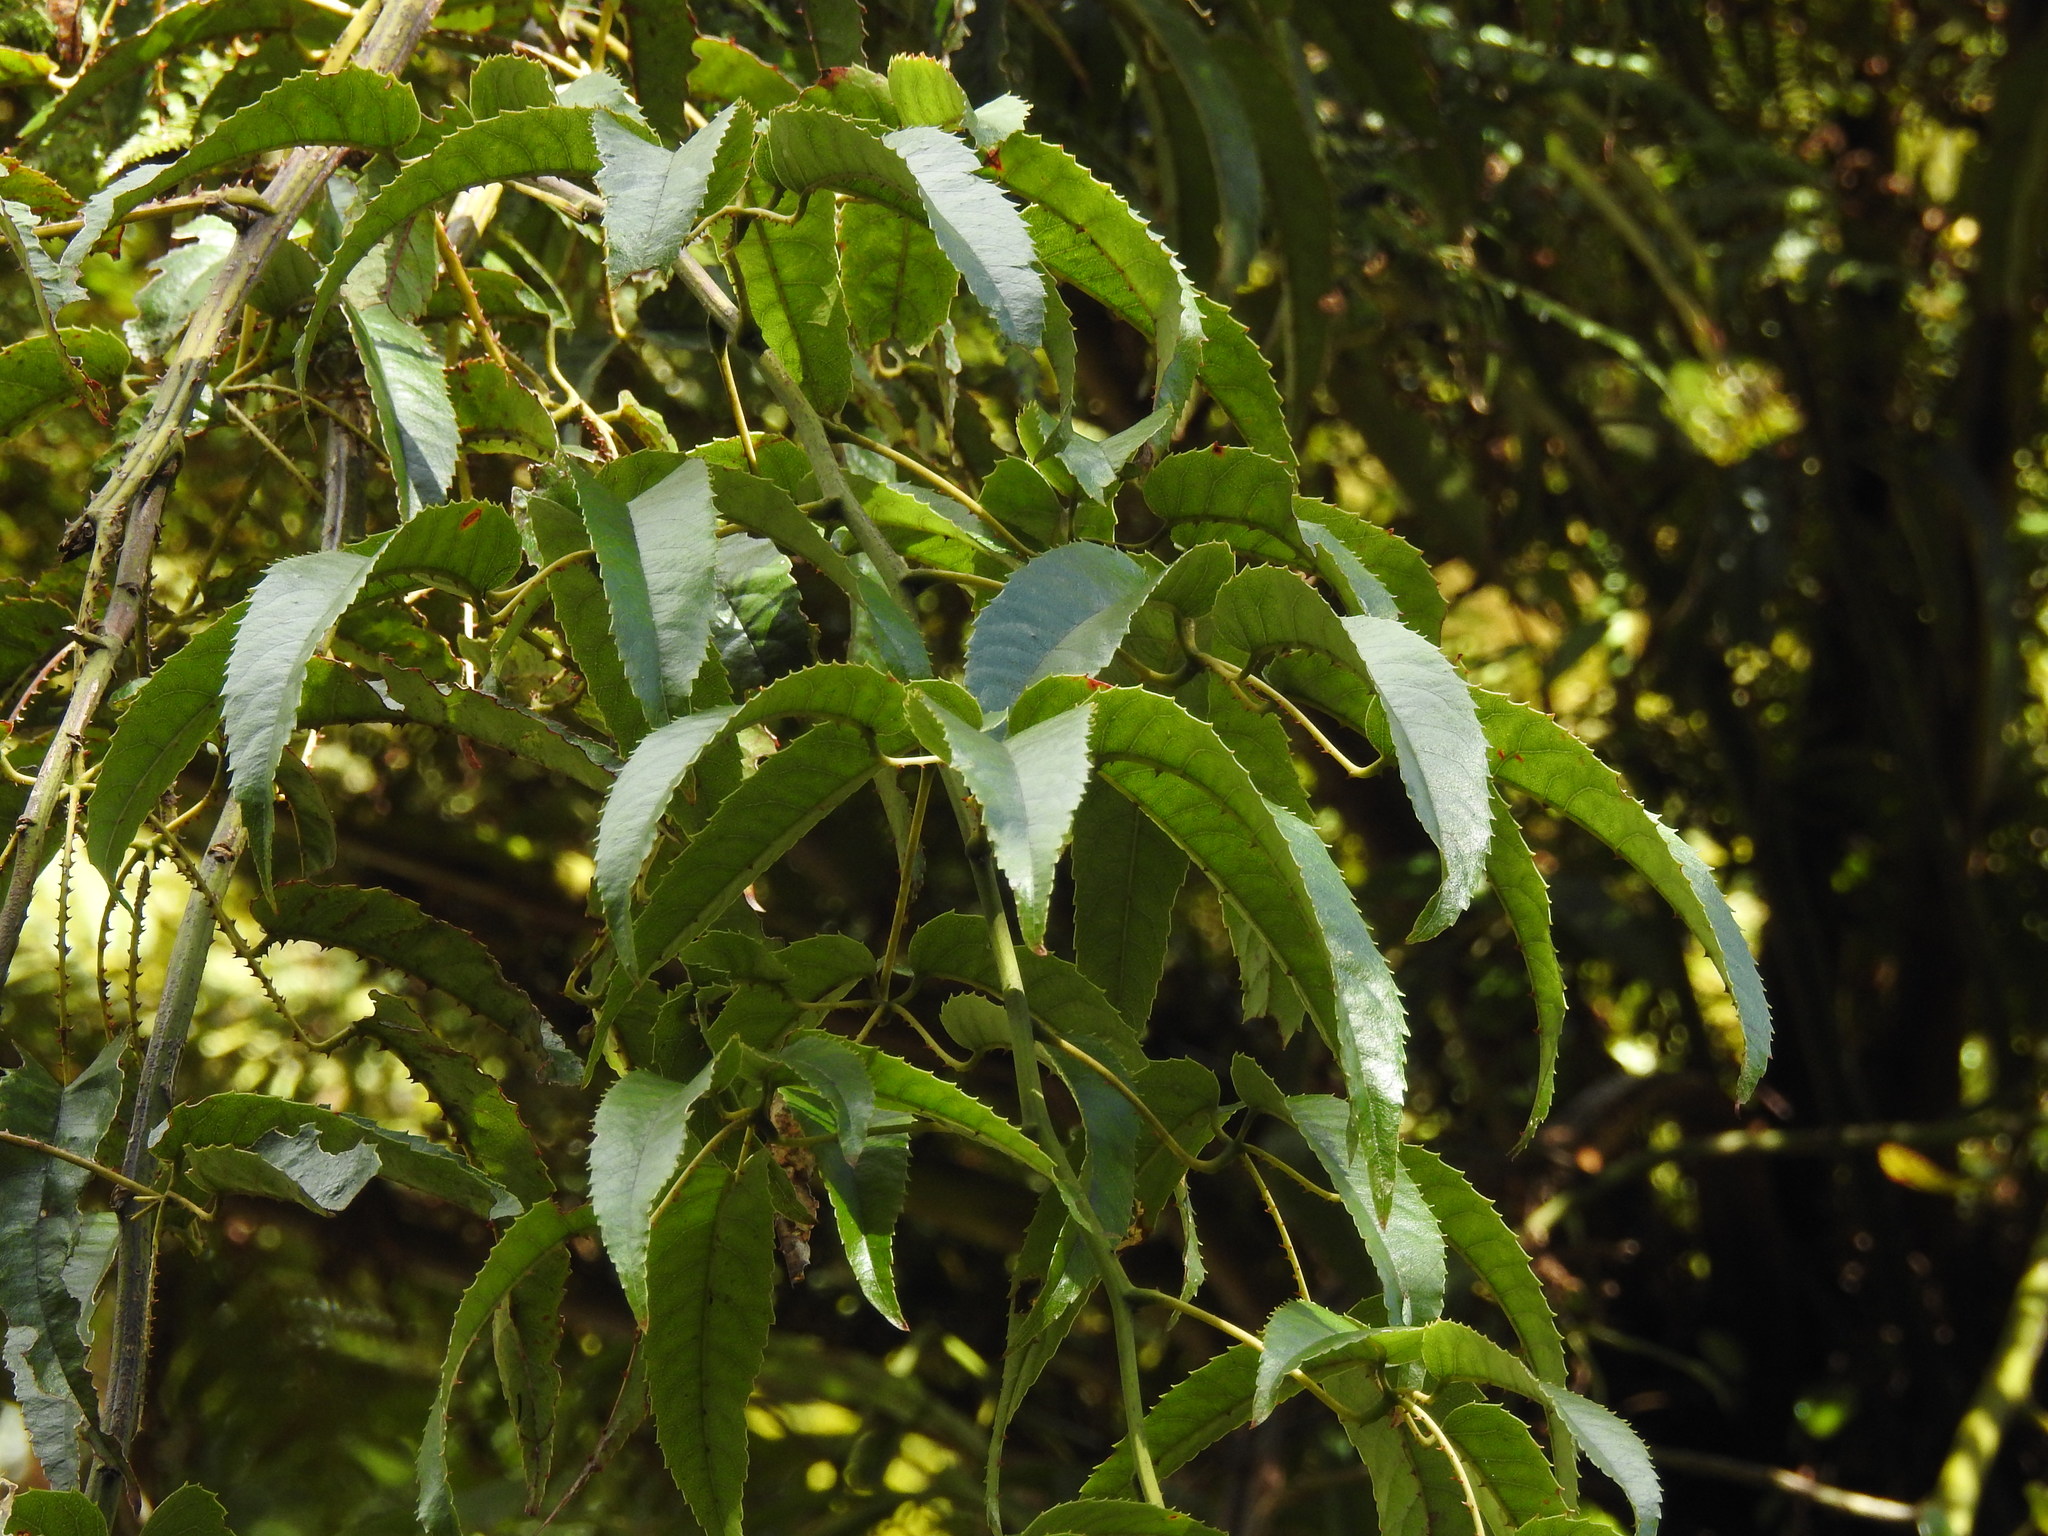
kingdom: Plantae
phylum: Tracheophyta
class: Magnoliopsida
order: Rosales
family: Rosaceae
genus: Rubus
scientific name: Rubus cissoides
